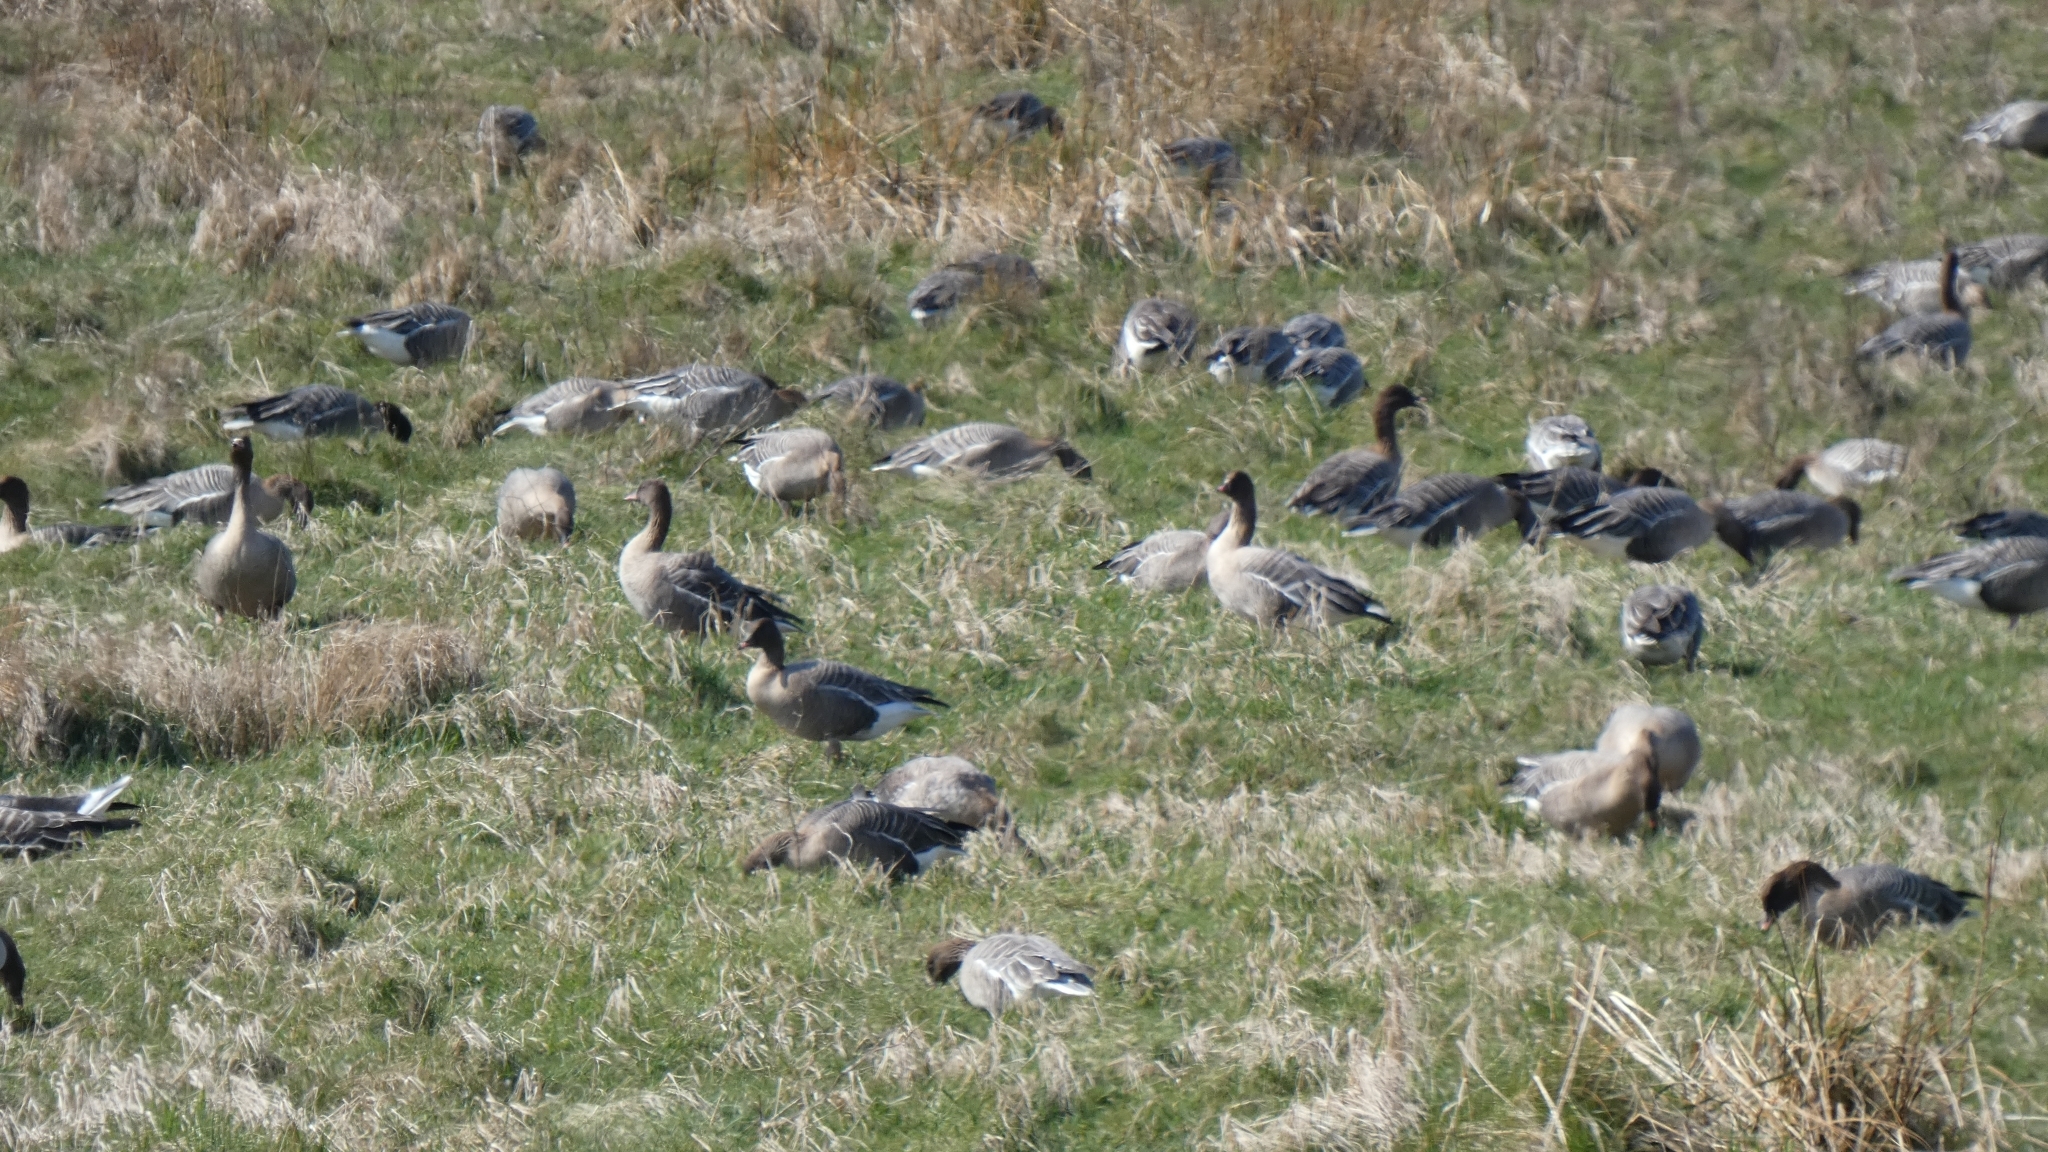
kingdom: Animalia
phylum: Chordata
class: Aves
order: Anseriformes
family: Anatidae
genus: Anser
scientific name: Anser brachyrhynchus
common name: Pink-footed goose
